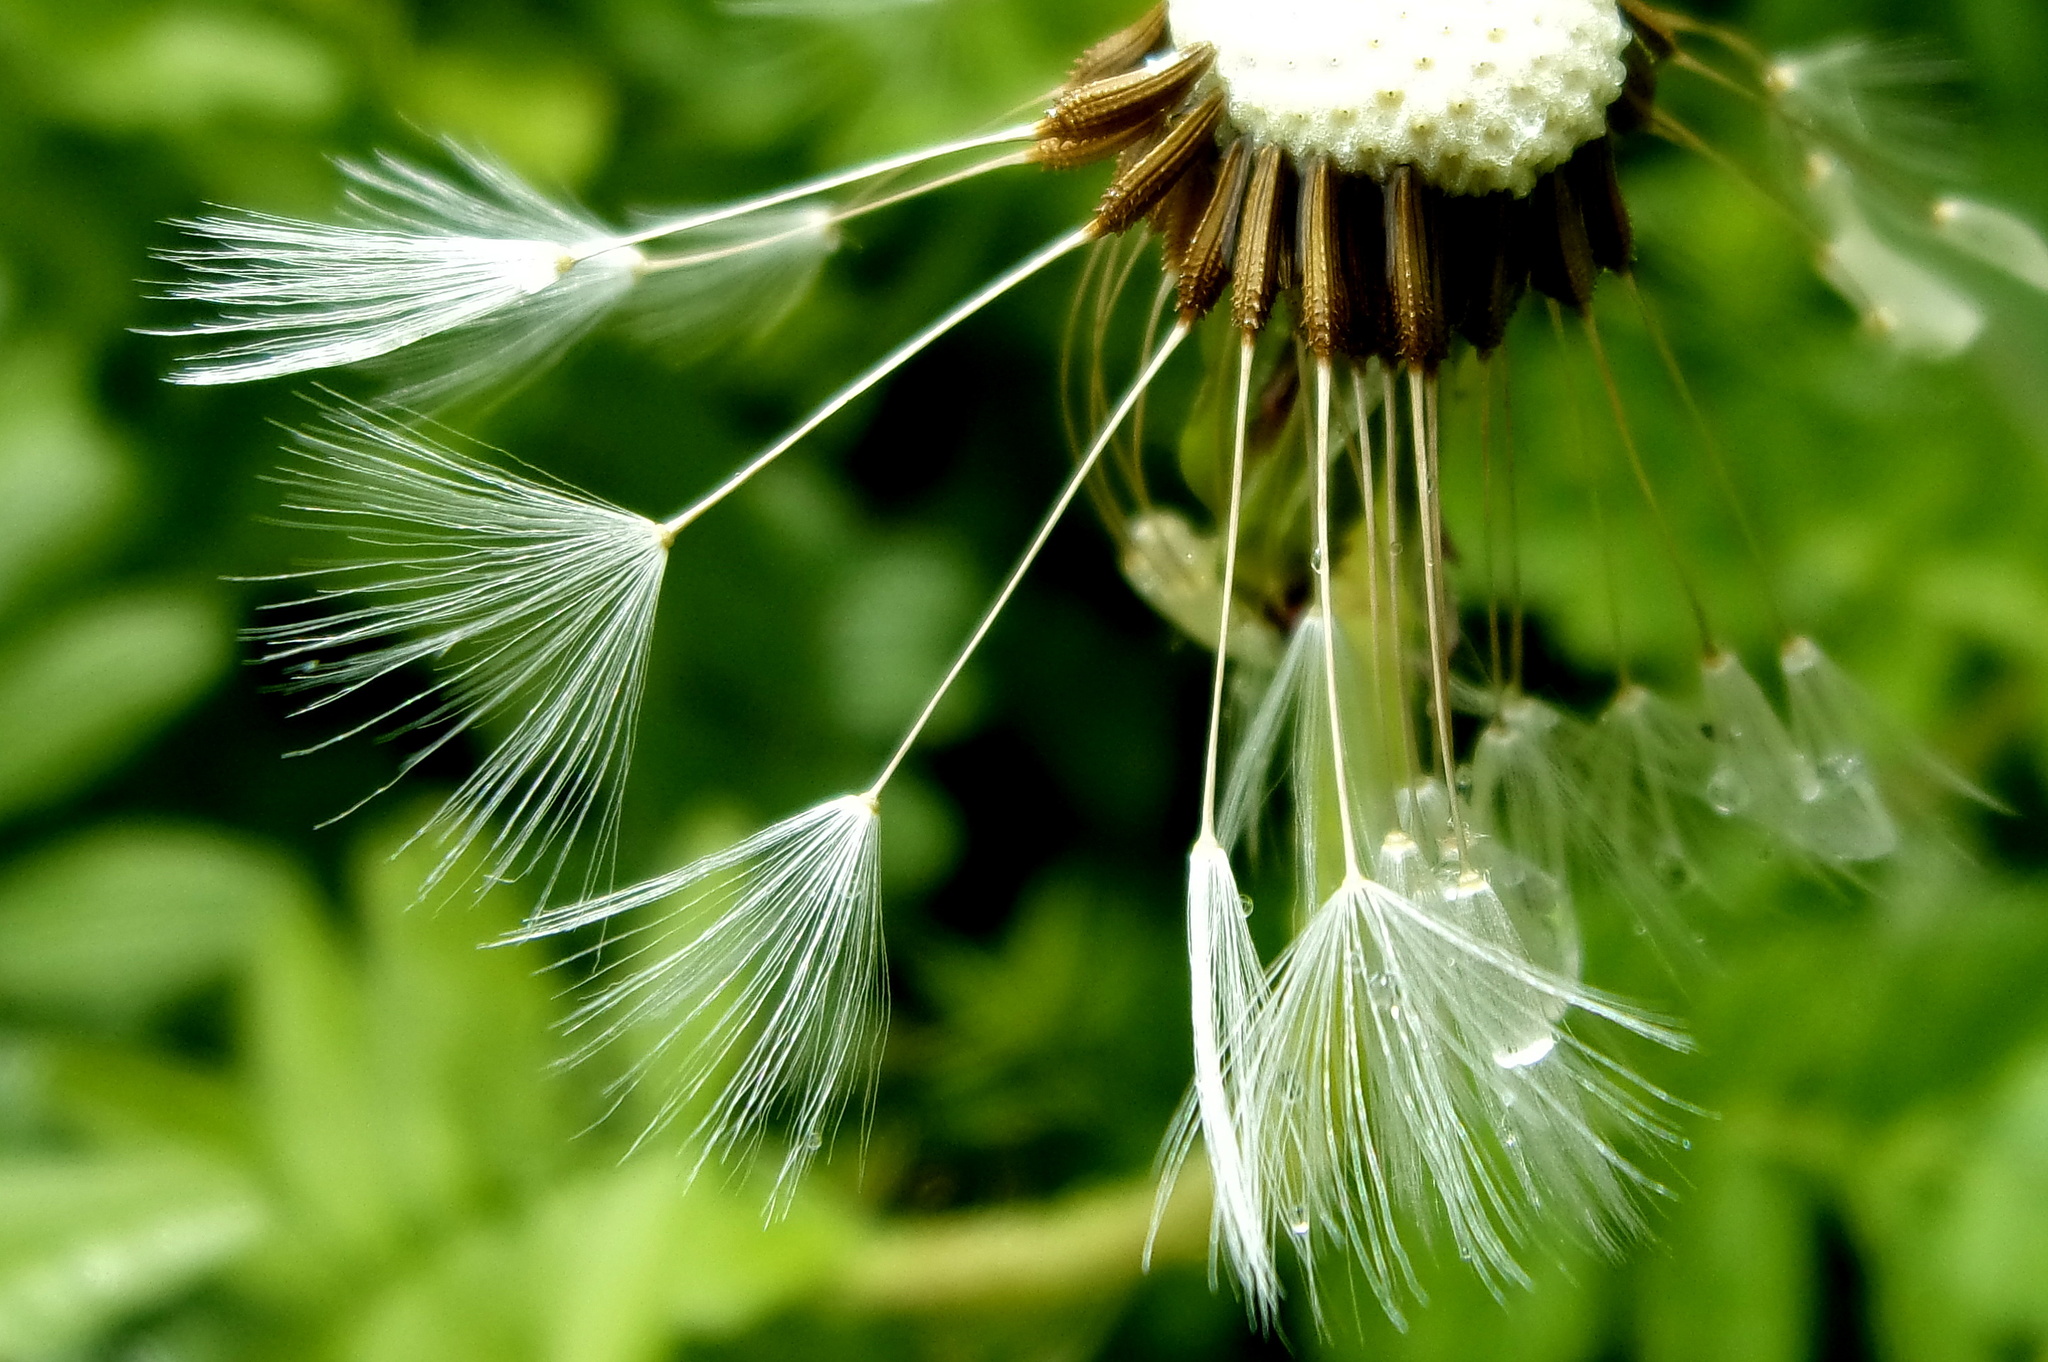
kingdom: Plantae
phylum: Tracheophyta
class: Magnoliopsida
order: Asterales
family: Asteraceae
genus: Taraxacum
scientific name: Taraxacum officinale
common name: Common dandelion
